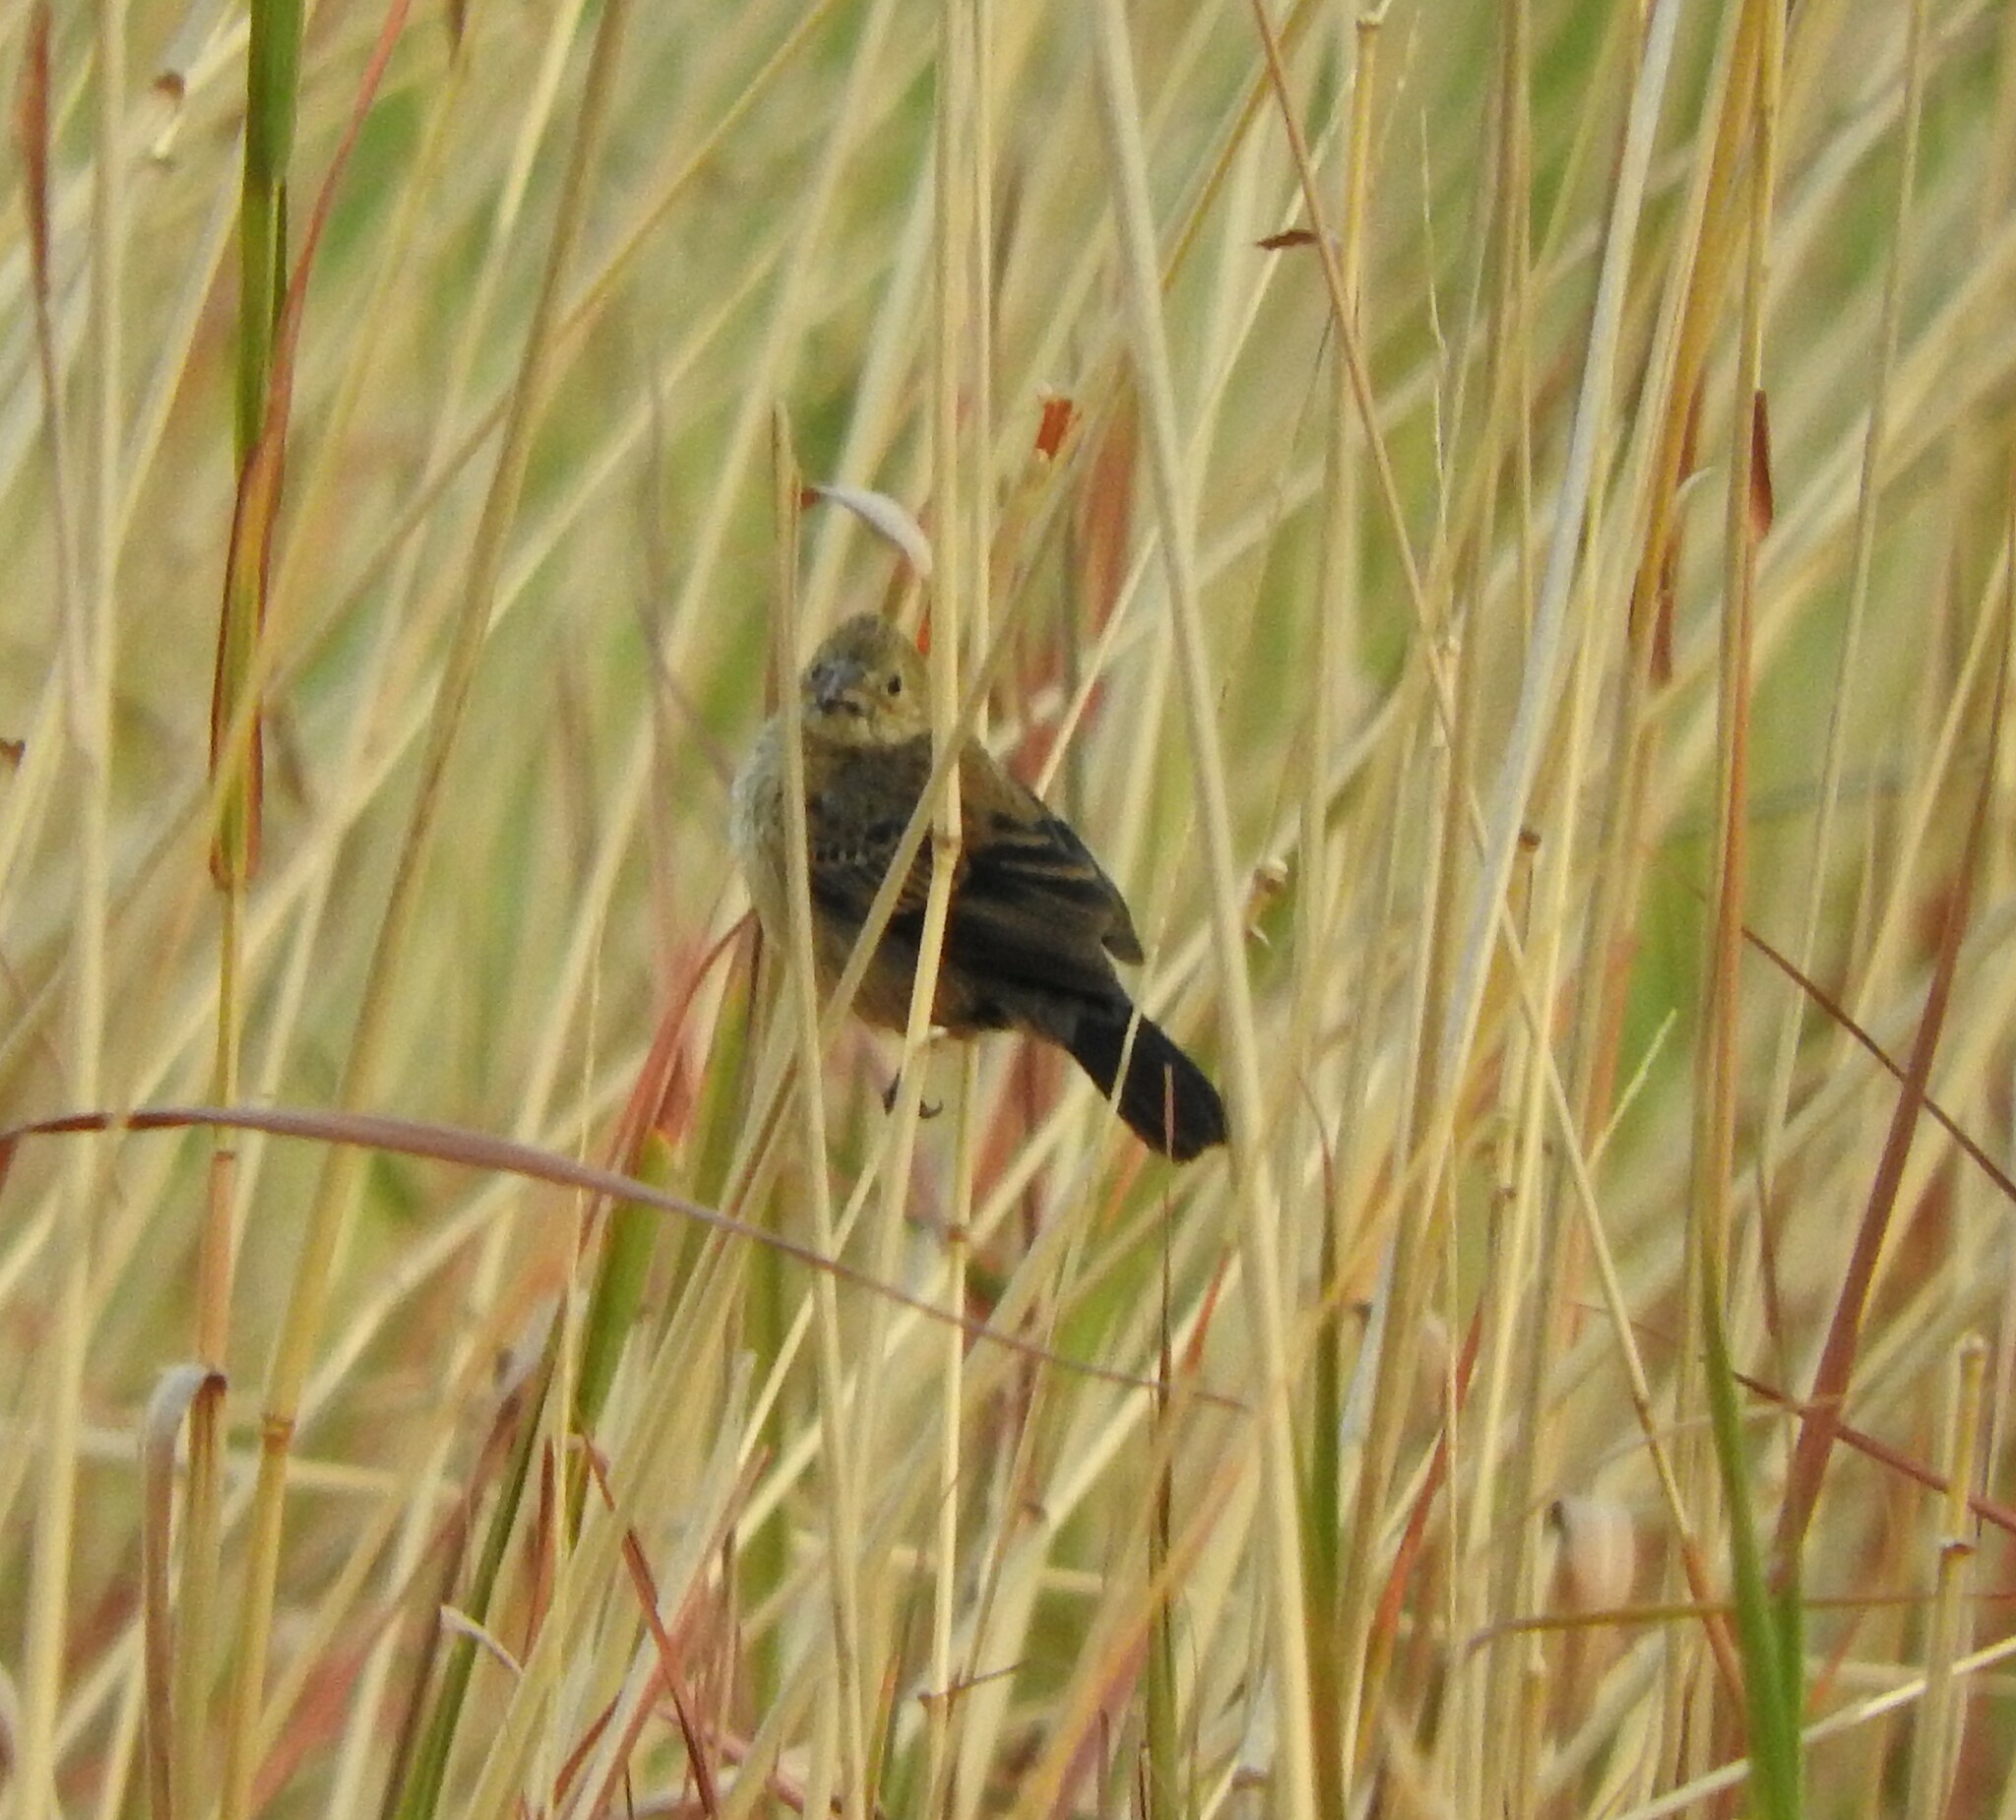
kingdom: Animalia
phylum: Chordata
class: Aves
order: Passeriformes
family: Thraupidae
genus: Volatinia
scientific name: Volatinia jacarina
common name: Blue-black grassquit
